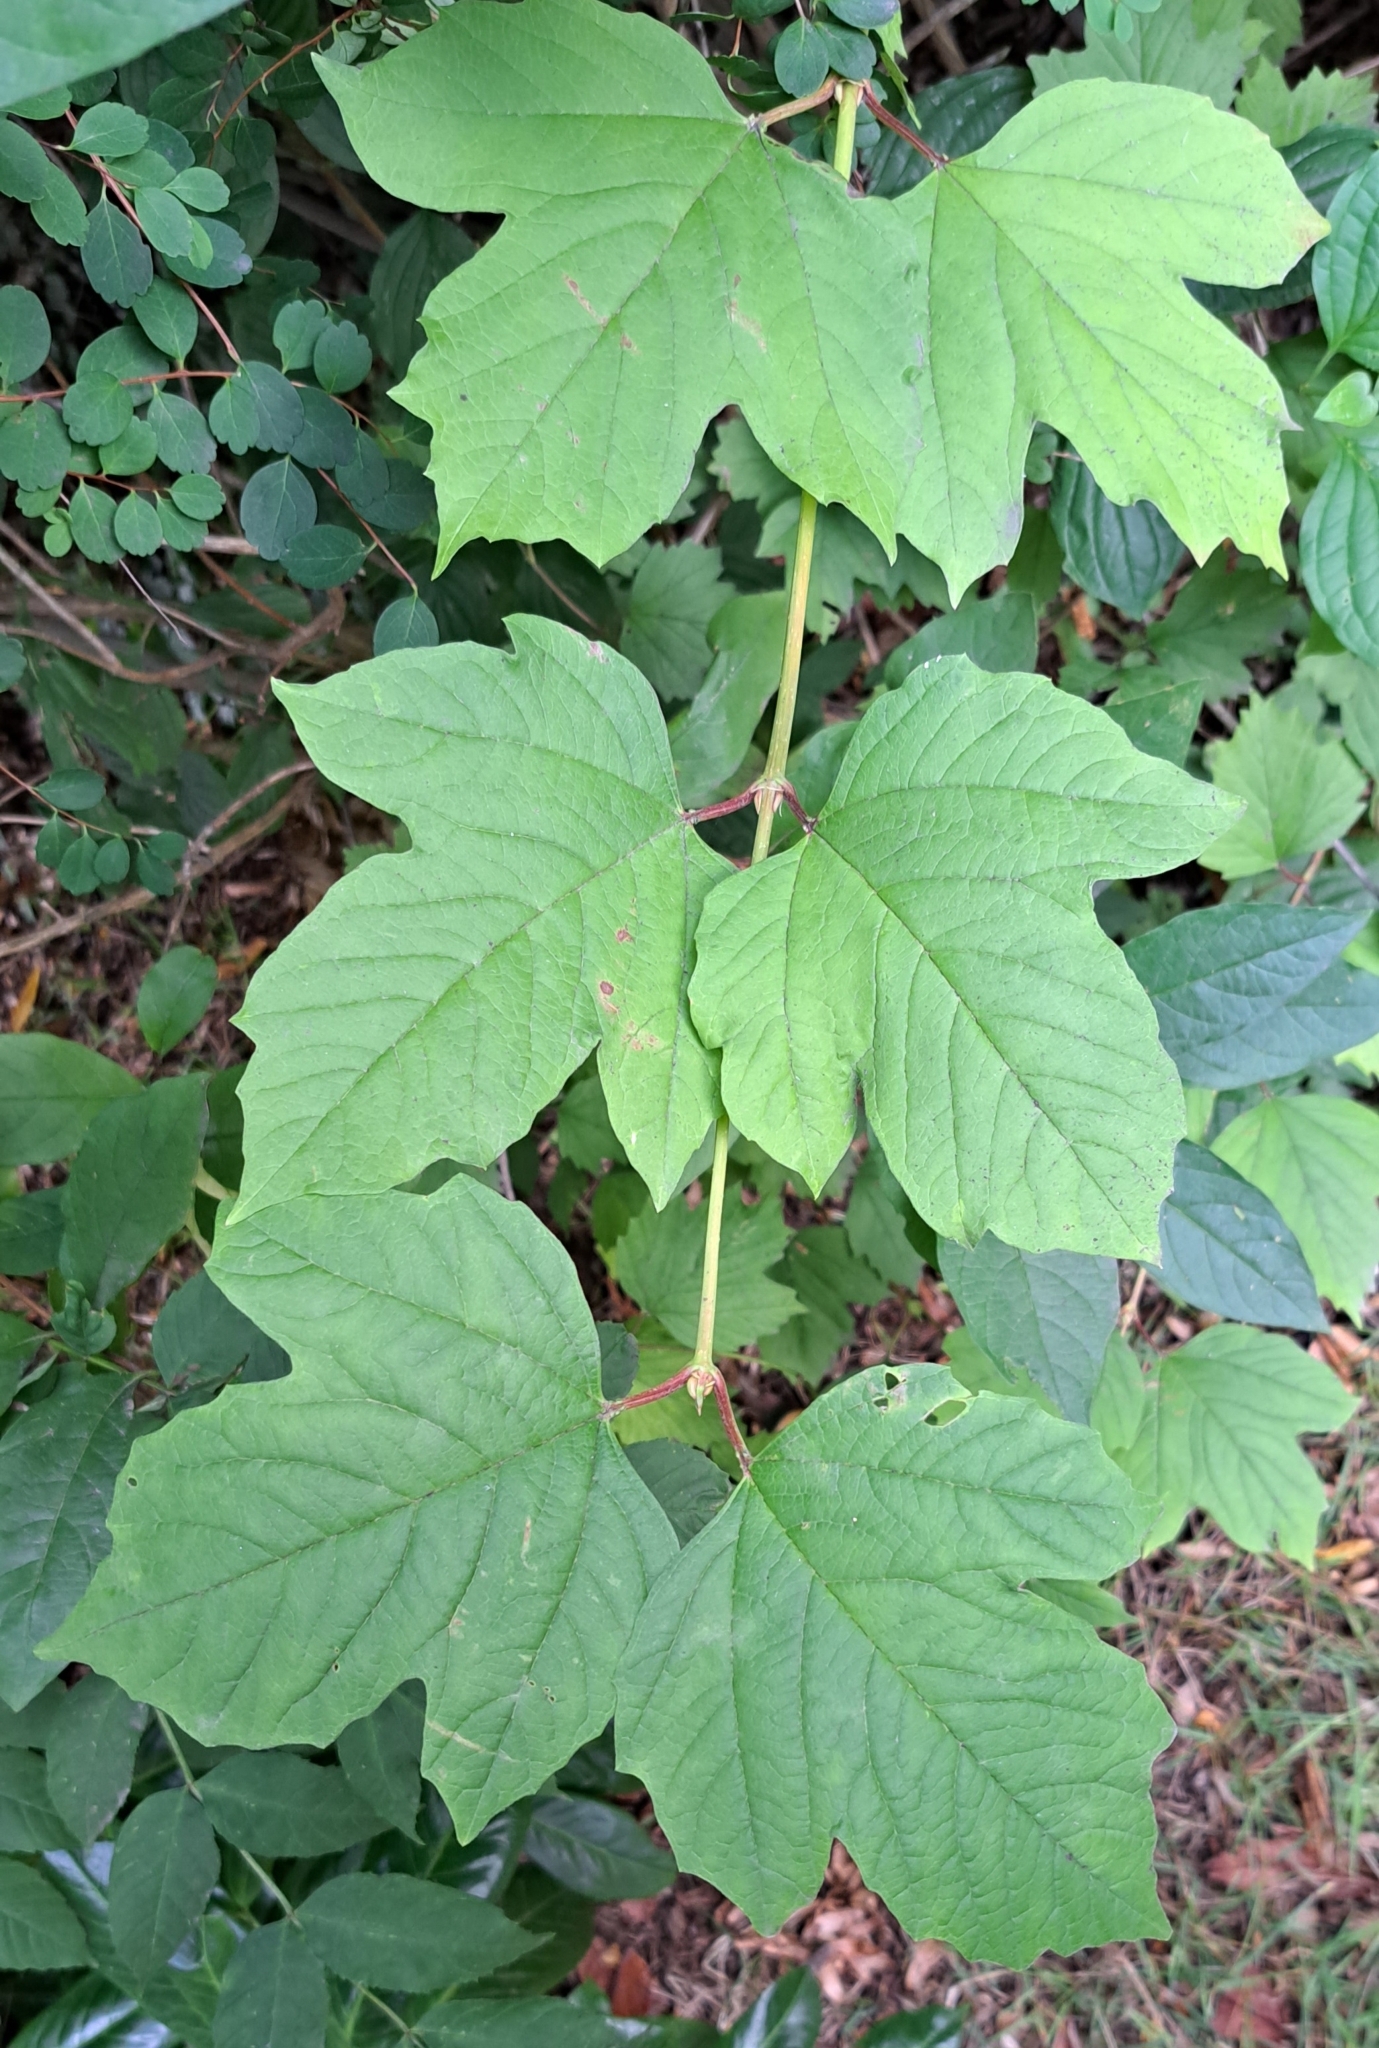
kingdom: Plantae
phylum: Tracheophyta
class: Magnoliopsida
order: Dipsacales
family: Viburnaceae
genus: Viburnum
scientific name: Viburnum opulus
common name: Guelder-rose
